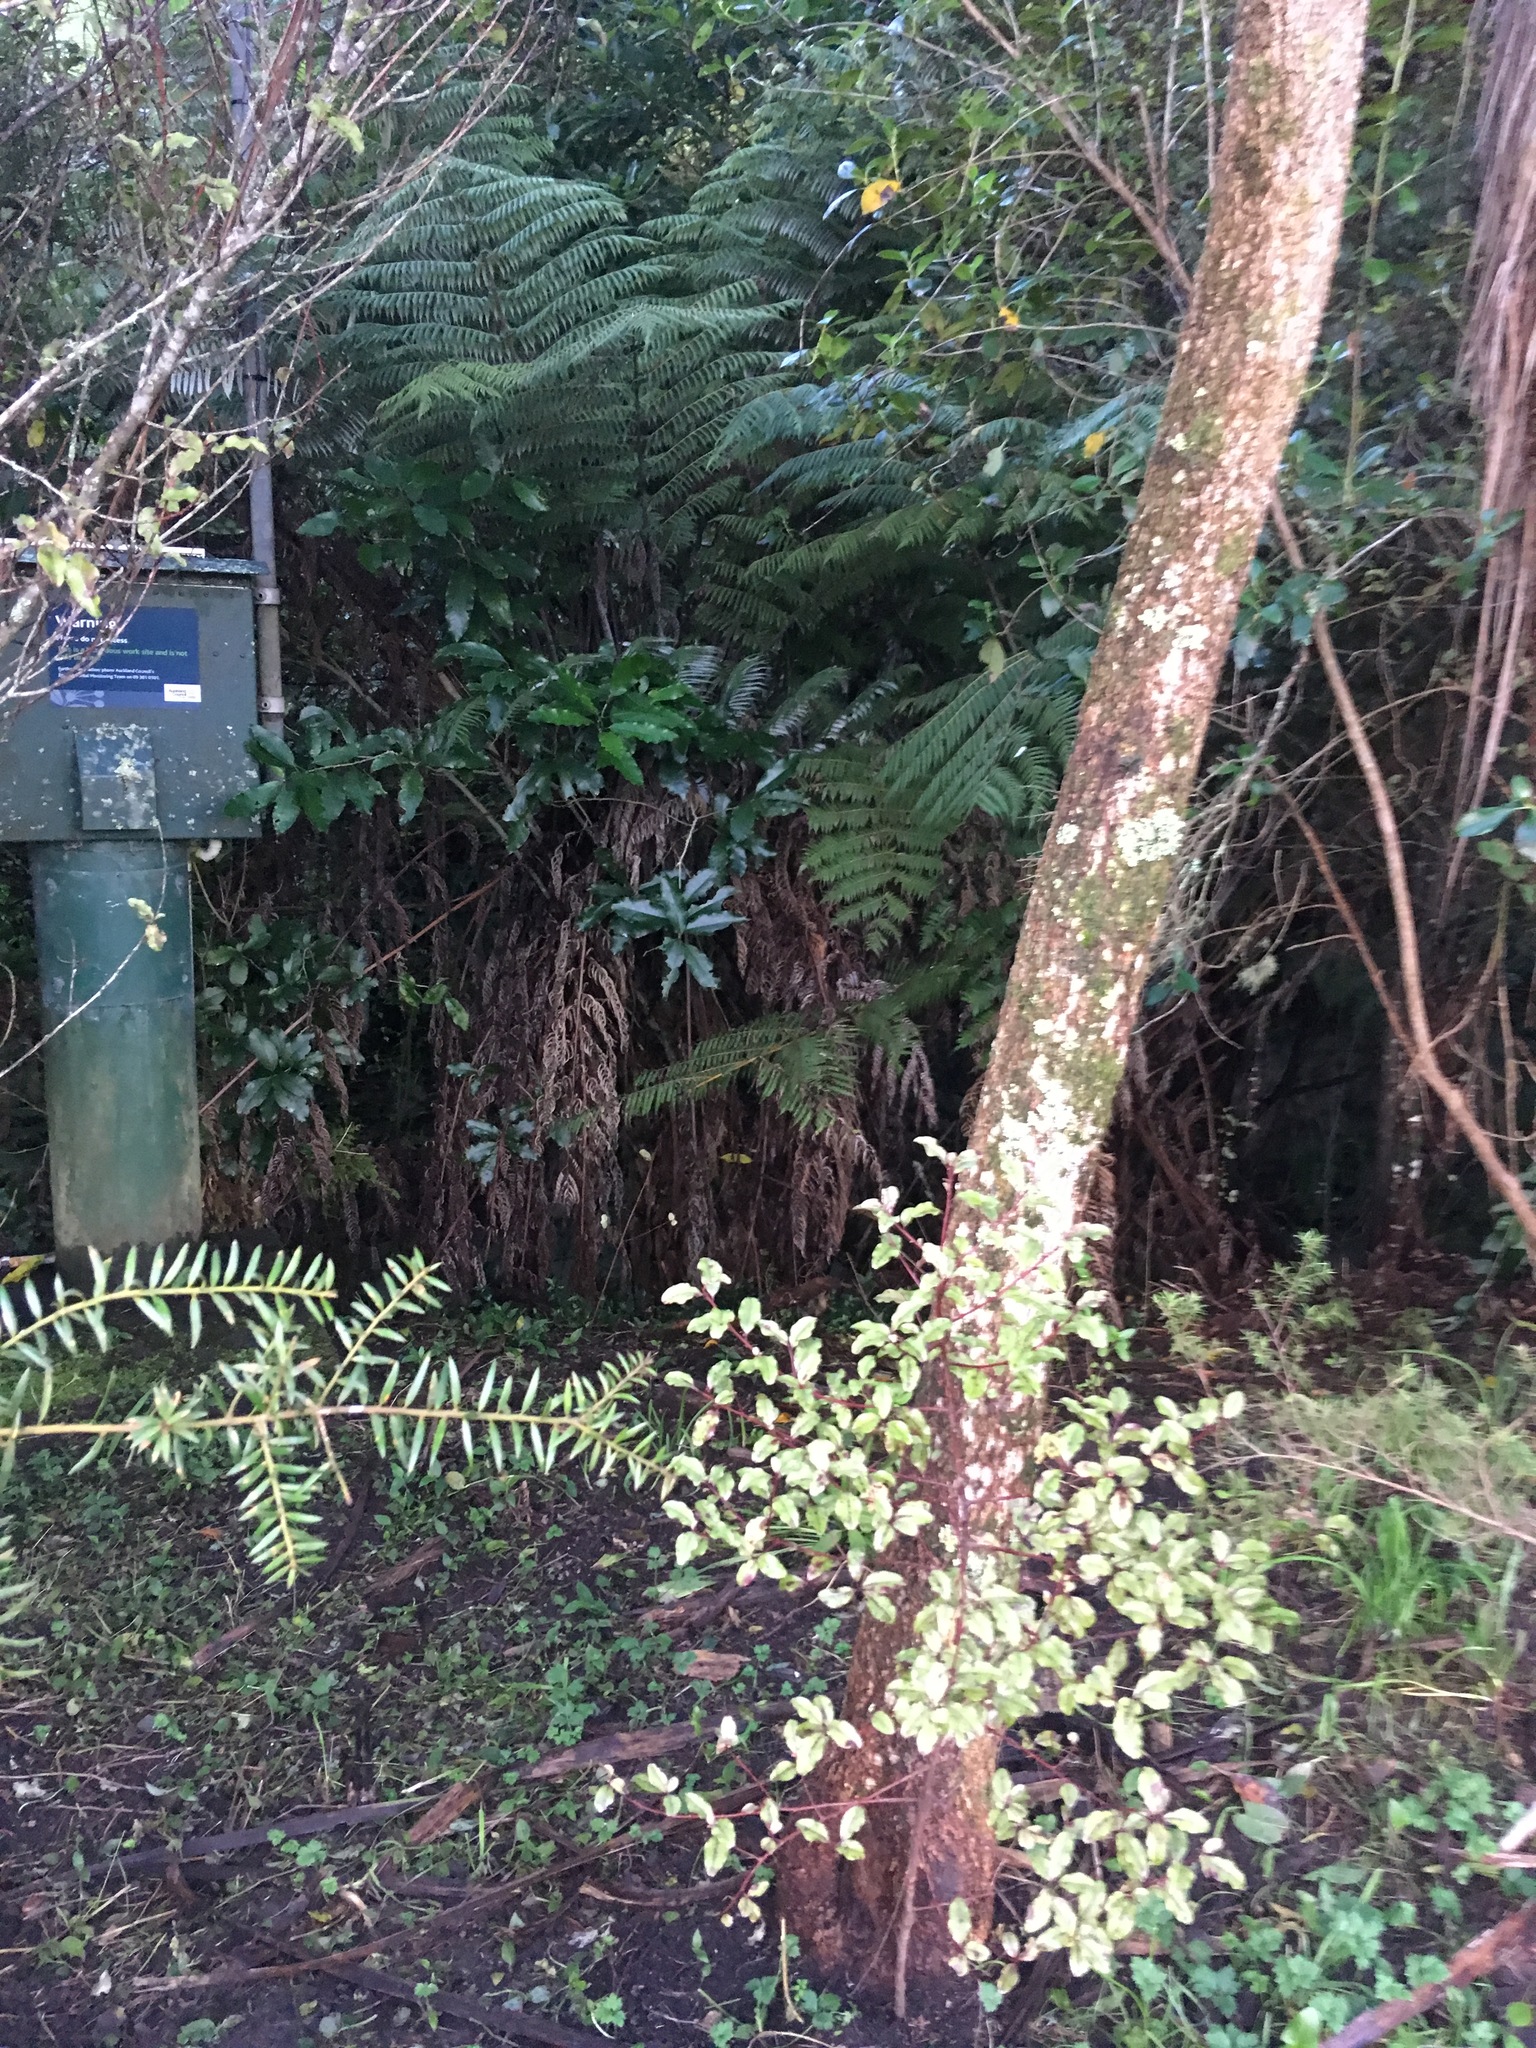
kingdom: Plantae
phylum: Tracheophyta
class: Pinopsida
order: Pinales
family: Podocarpaceae
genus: Podocarpus
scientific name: Podocarpus totara
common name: Totara
